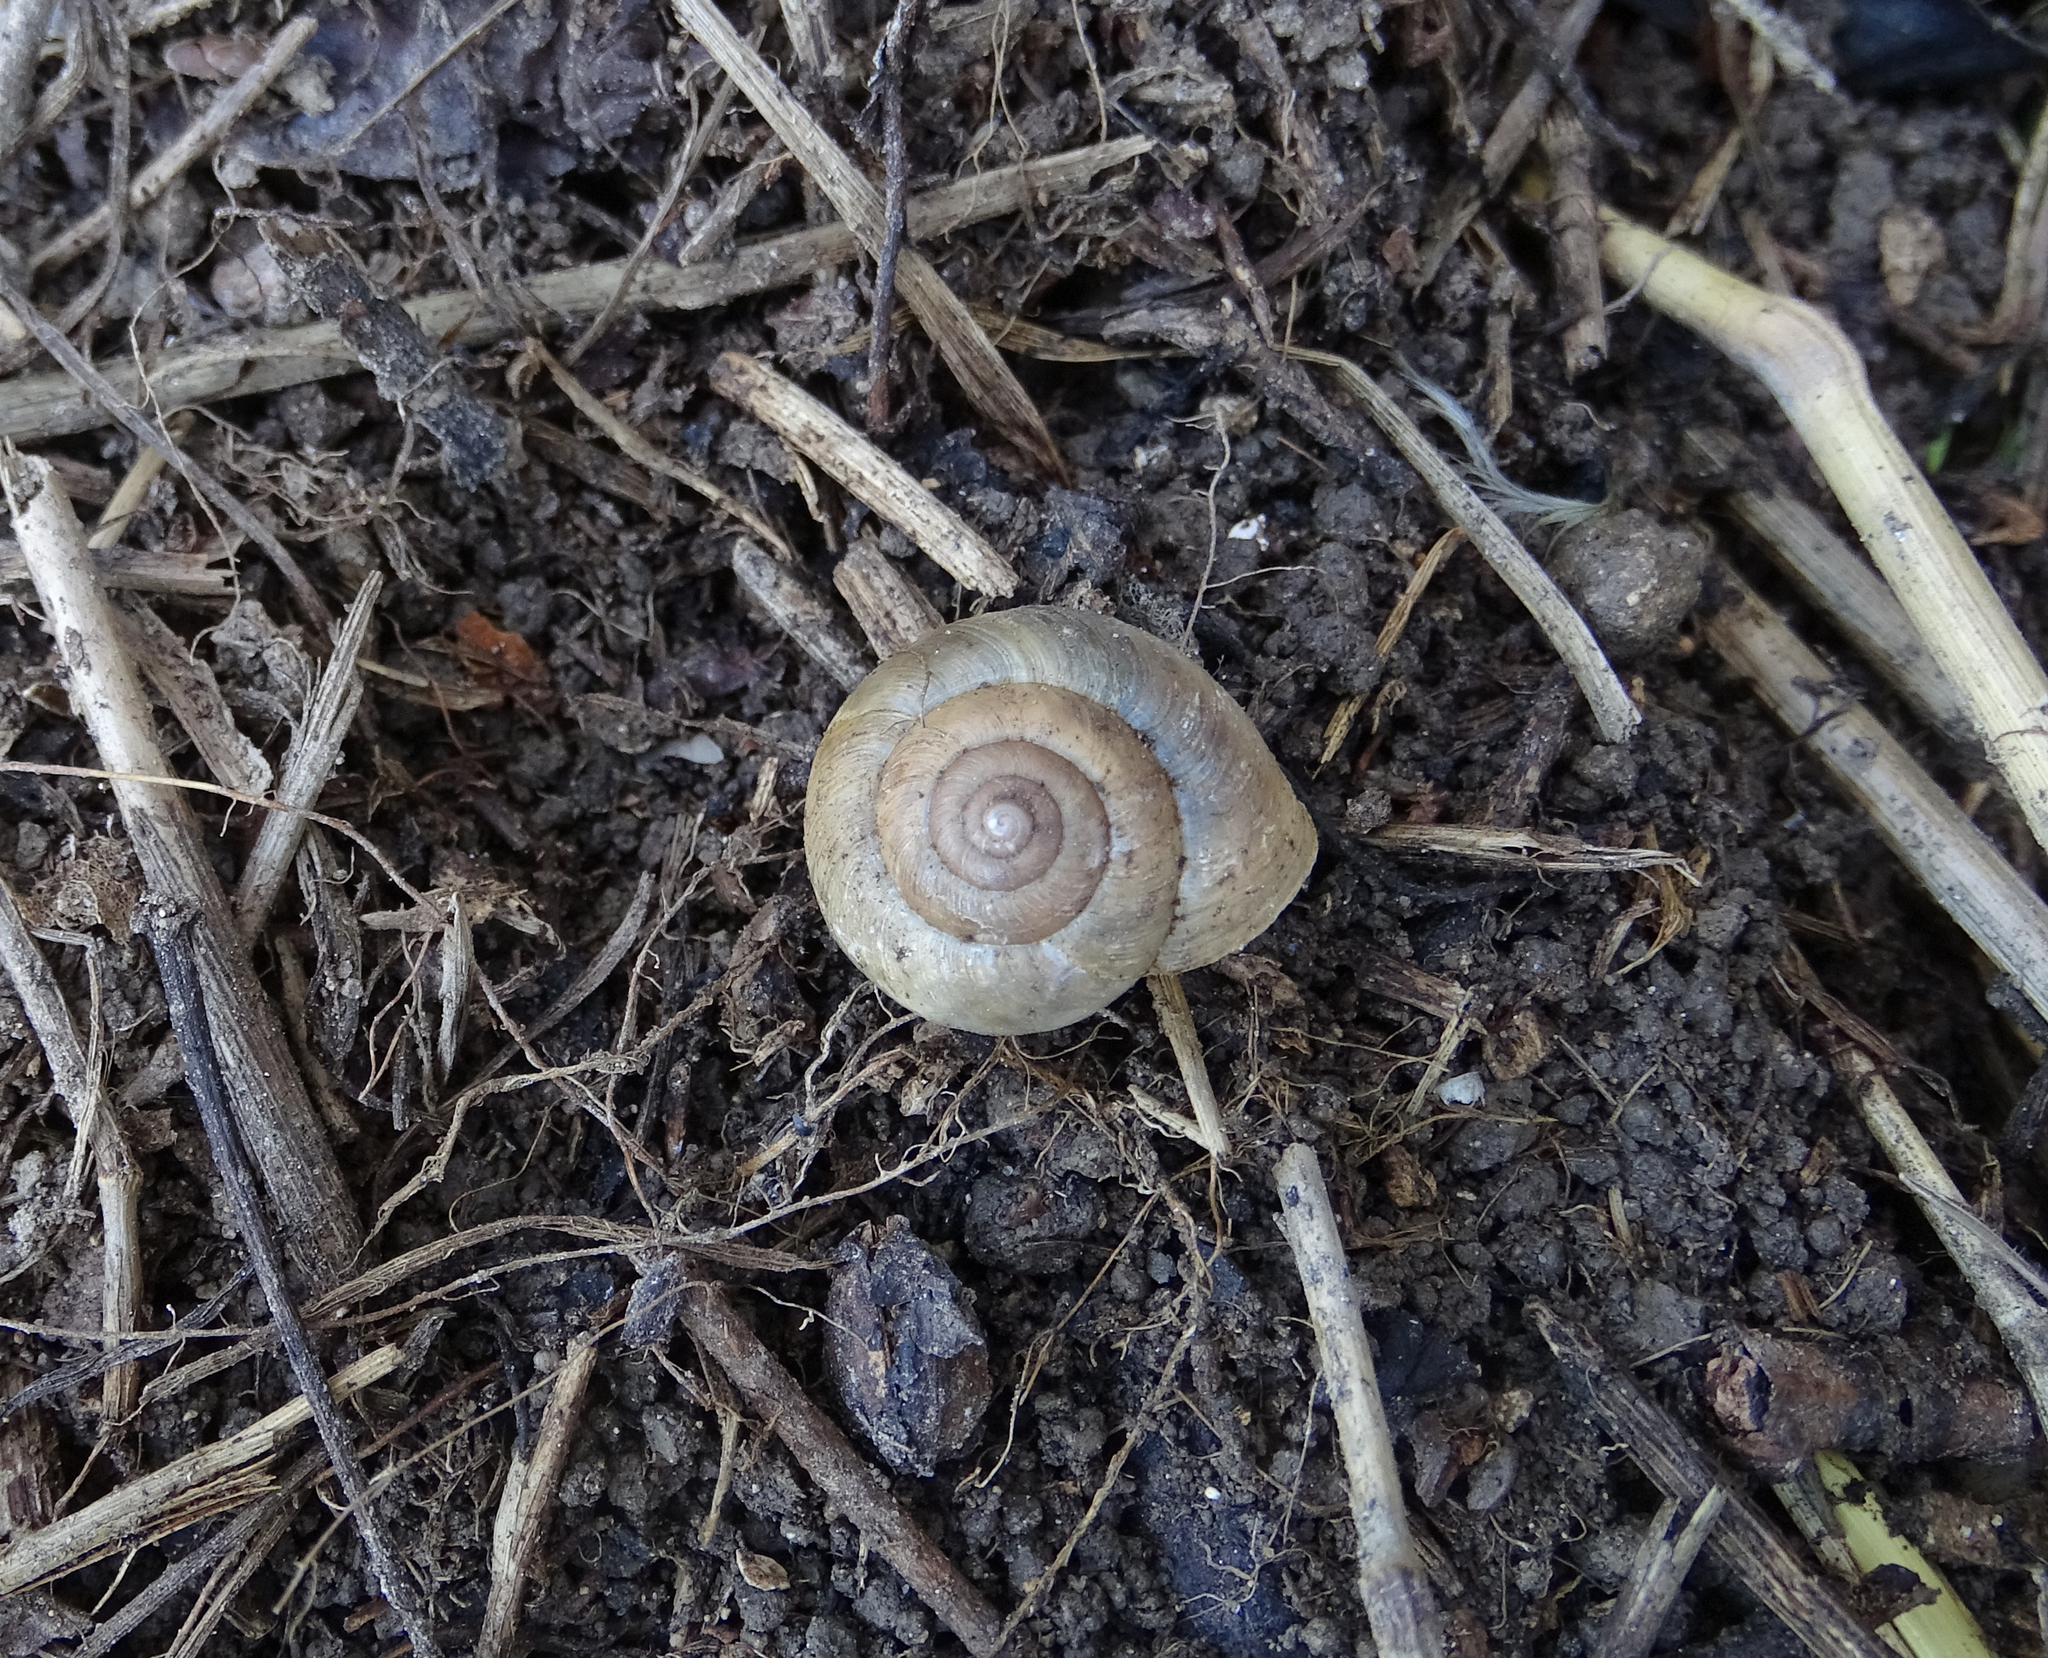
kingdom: Animalia
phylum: Mollusca
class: Gastropoda
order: Stylommatophora
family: Hygromiidae
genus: Euomphalia
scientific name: Euomphalia strigella
